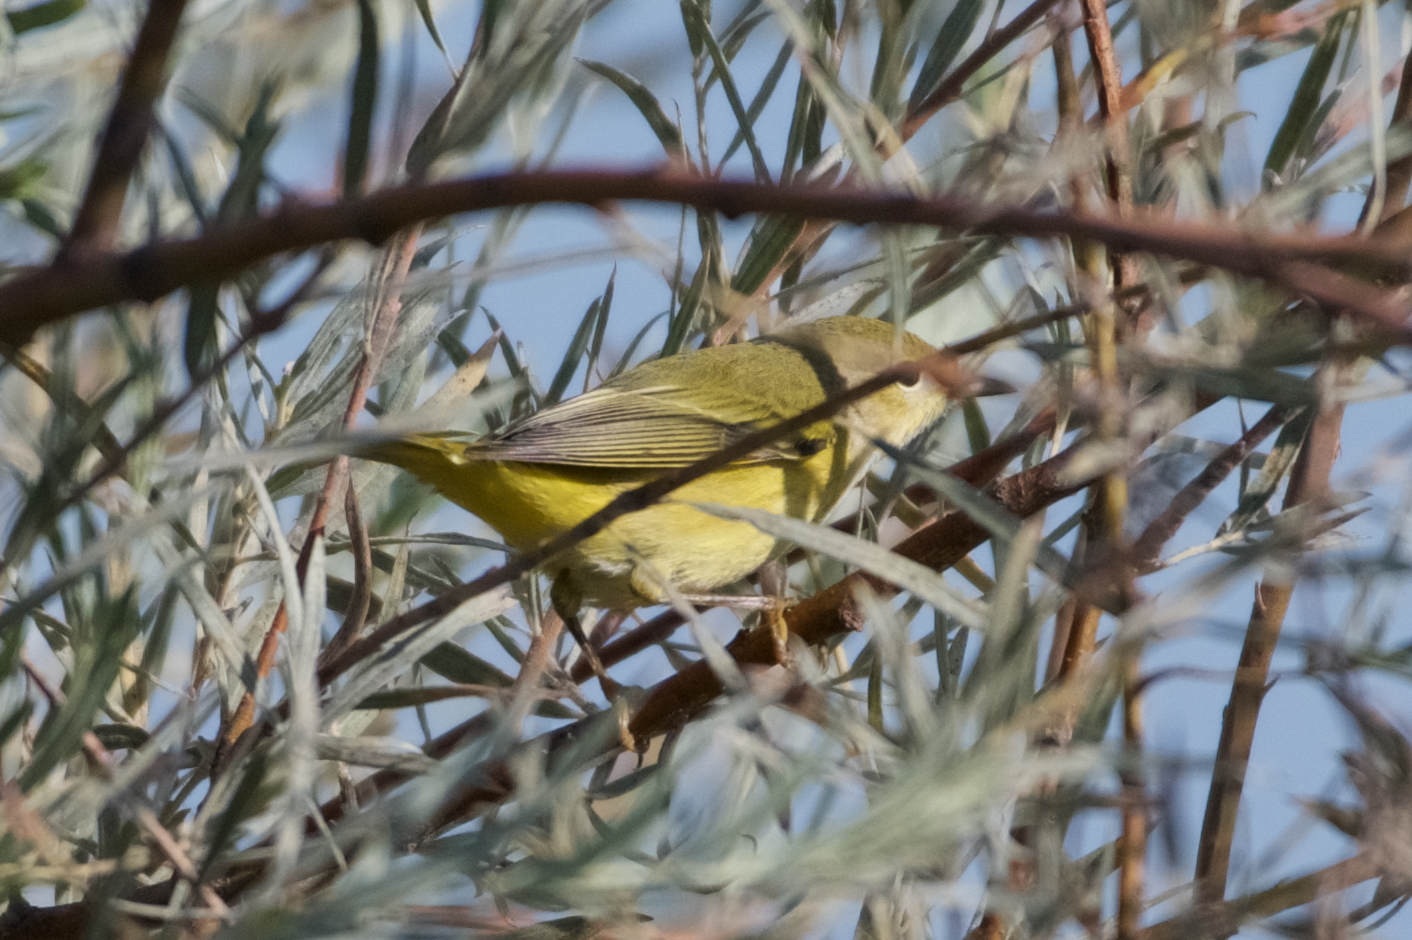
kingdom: Animalia
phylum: Chordata
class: Aves
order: Passeriformes
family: Parulidae
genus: Setophaga
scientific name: Setophaga petechia
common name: Yellow warbler
